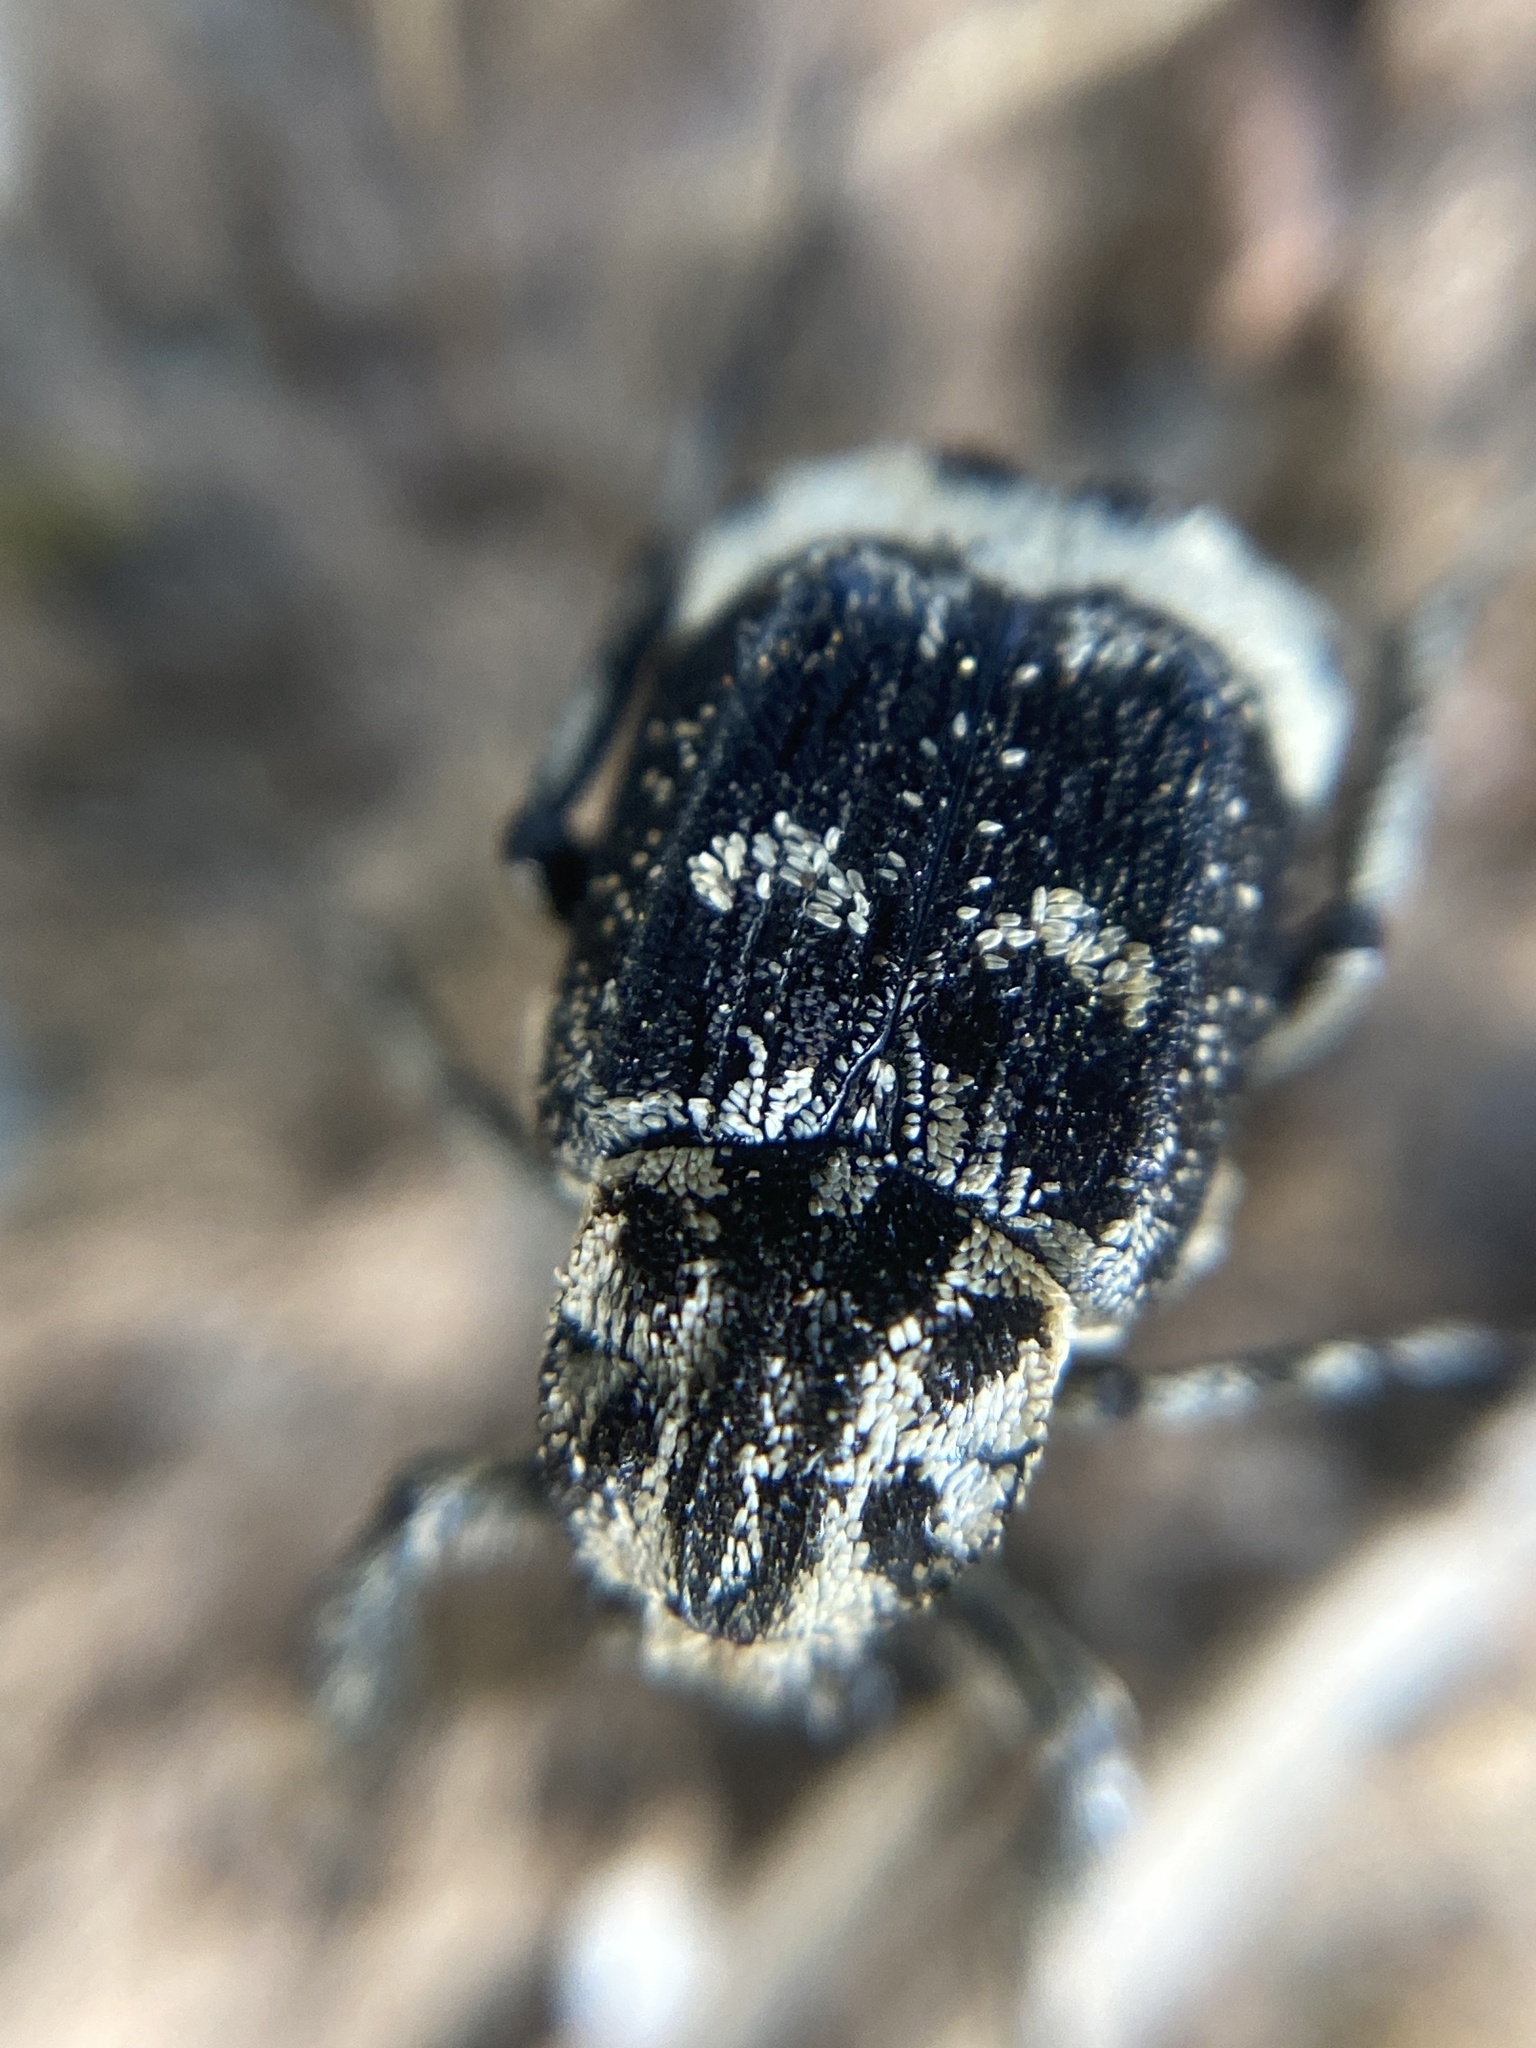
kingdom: Animalia
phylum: Arthropoda
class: Insecta
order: Coleoptera
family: Scarabaeidae
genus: Valgus
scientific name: Valgus hemipterus
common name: Bug flower chafer
